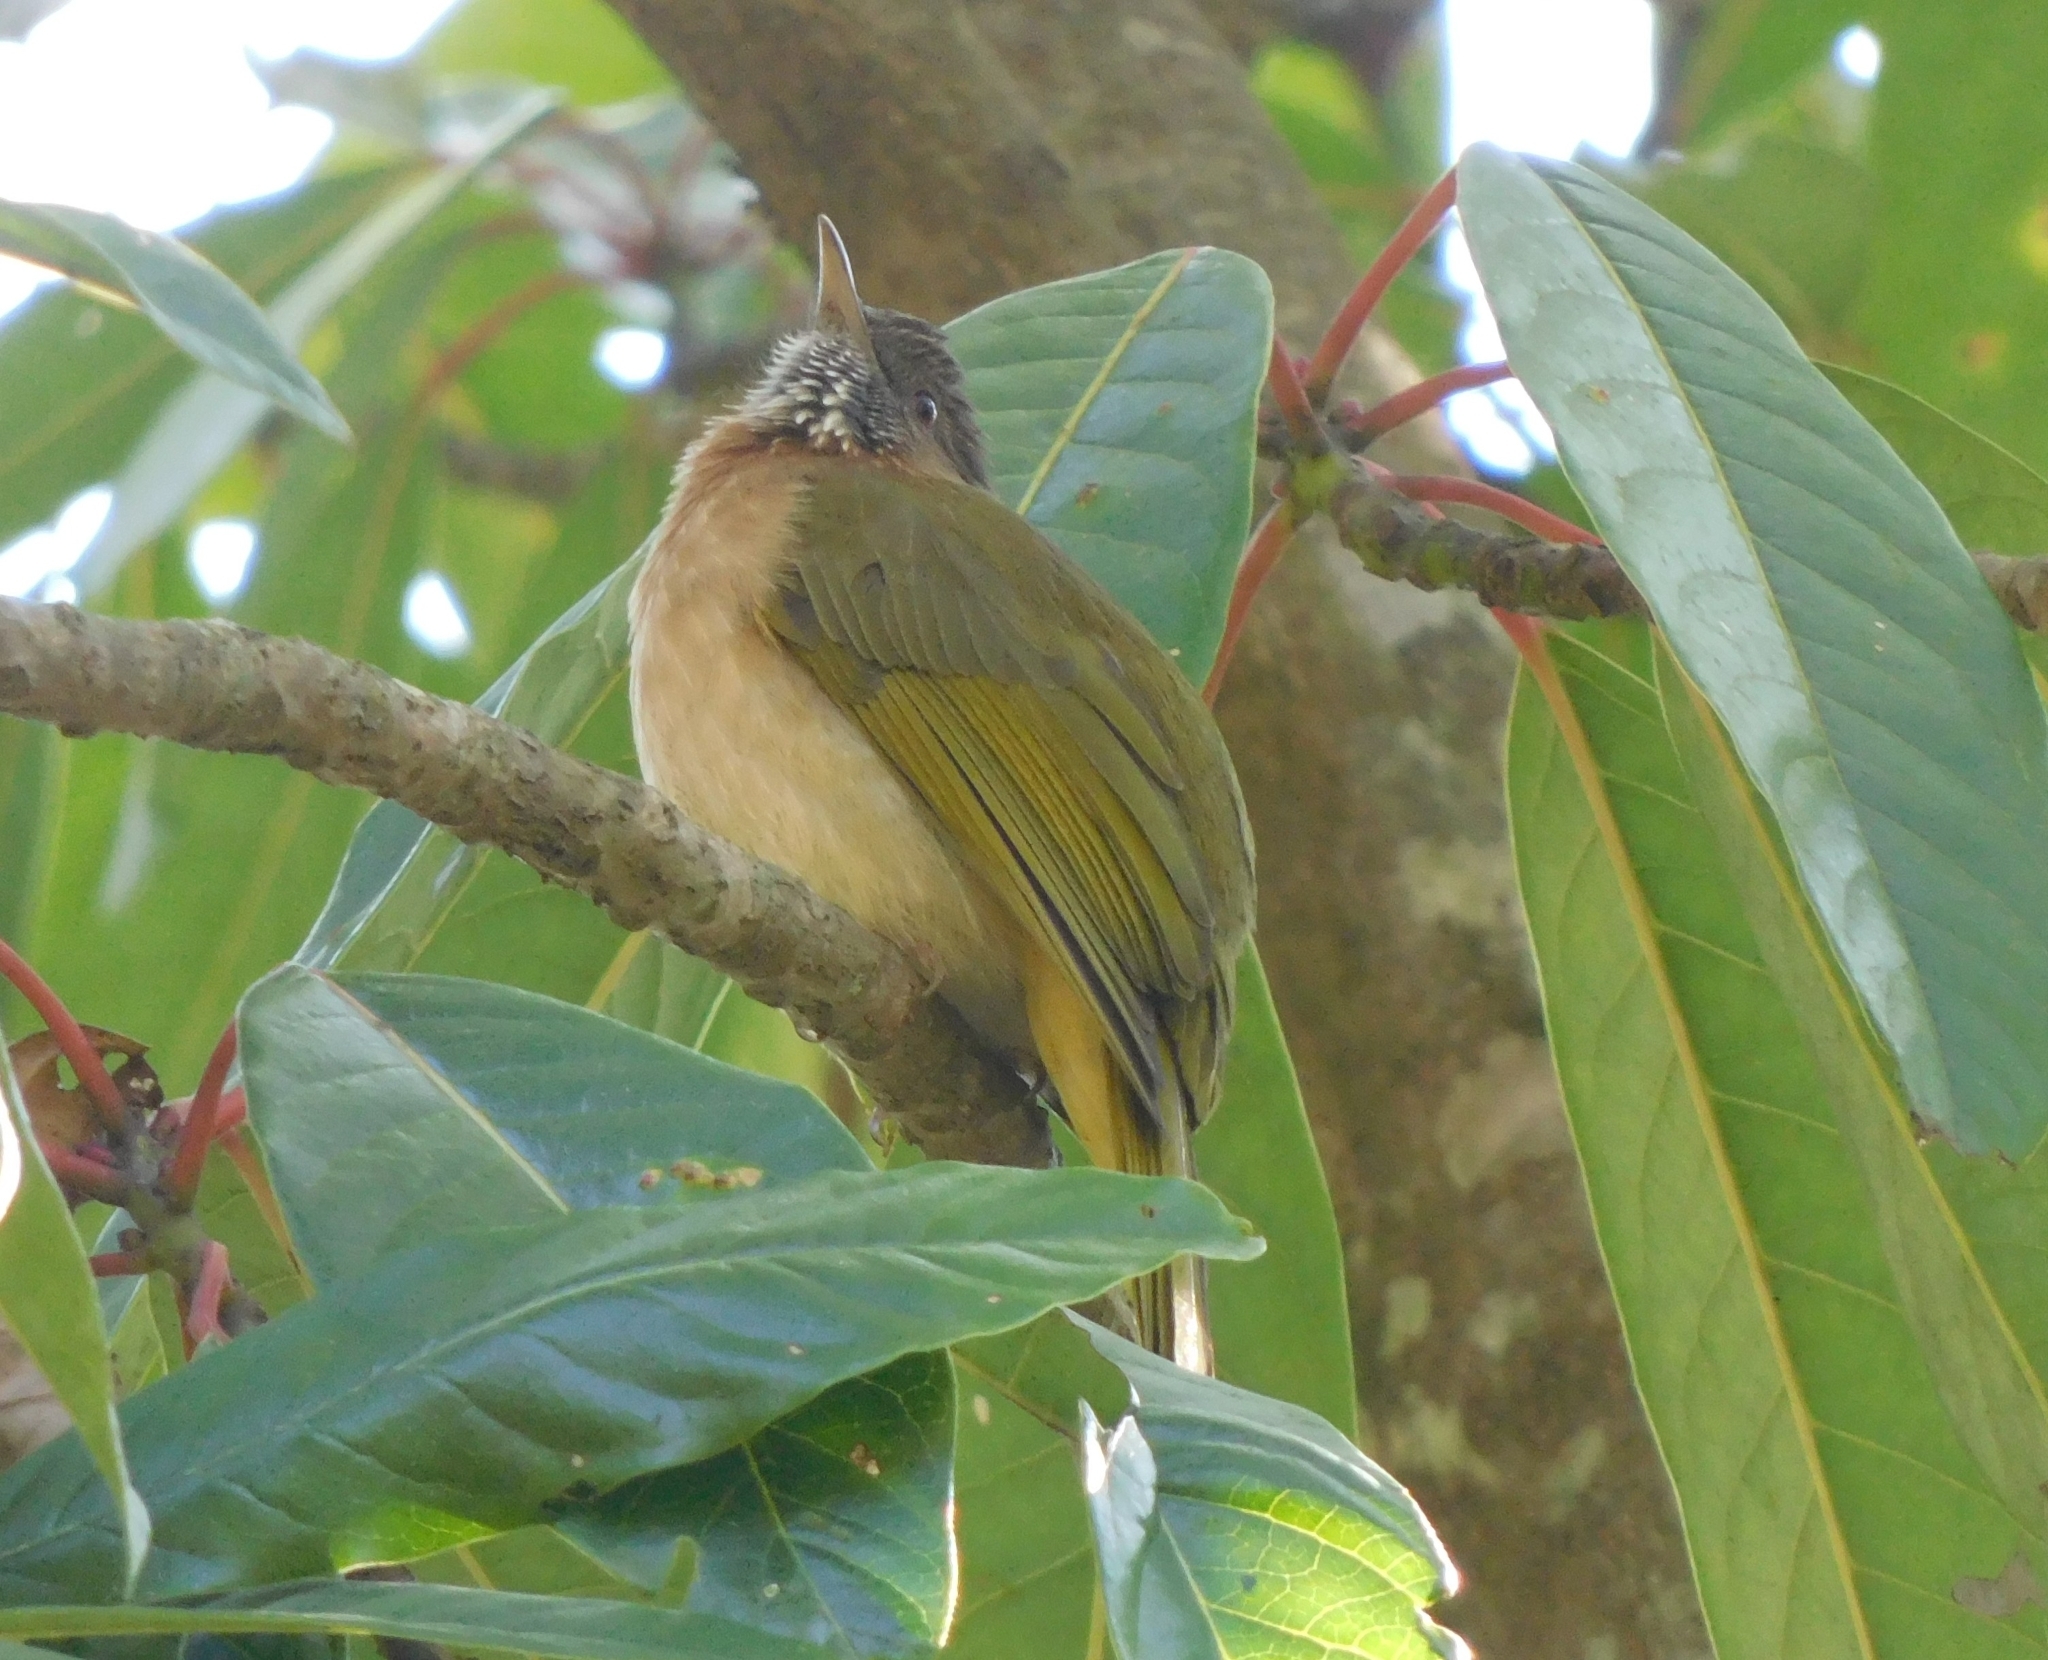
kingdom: Animalia
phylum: Chordata
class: Aves
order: Passeriformes
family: Pycnonotidae
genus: Ixos
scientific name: Ixos mcclellandii
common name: Mountain bulbul
